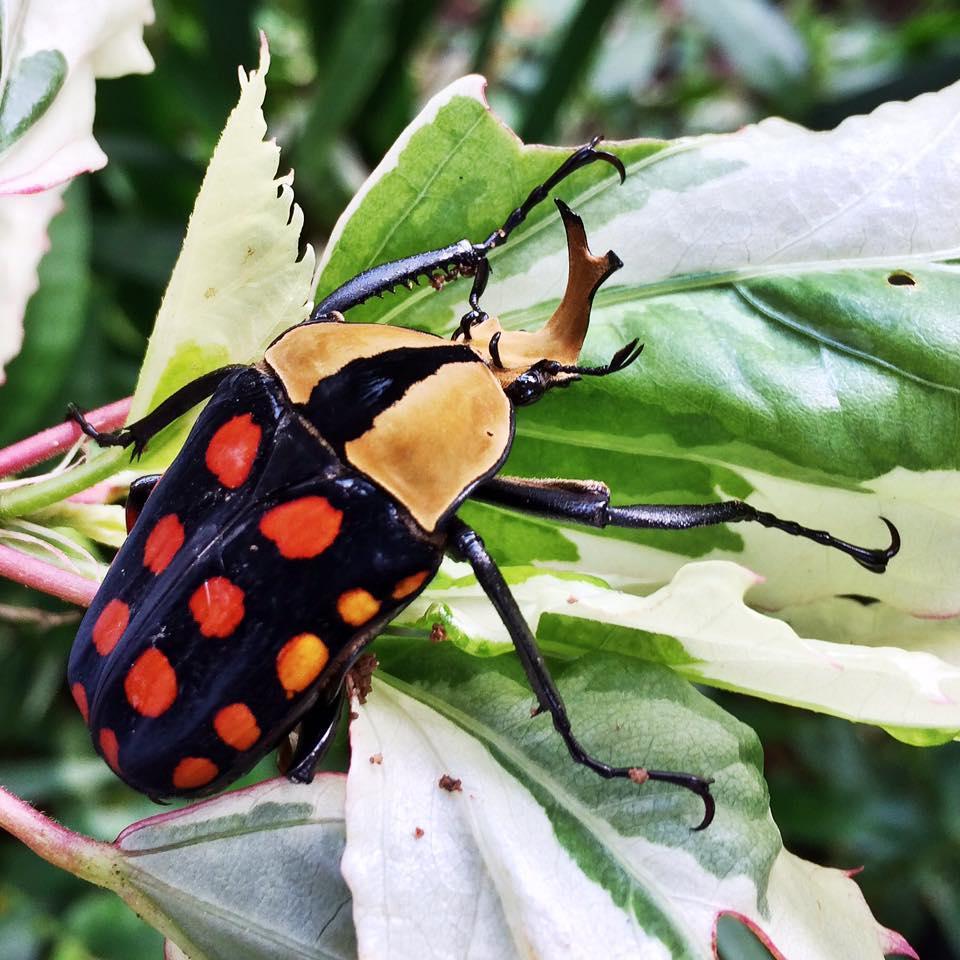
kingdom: Animalia
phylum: Arthropoda
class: Insecta
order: Coleoptera
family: Scarabaeidae
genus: Mecynorhina
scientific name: Mecynorhina passerinii
